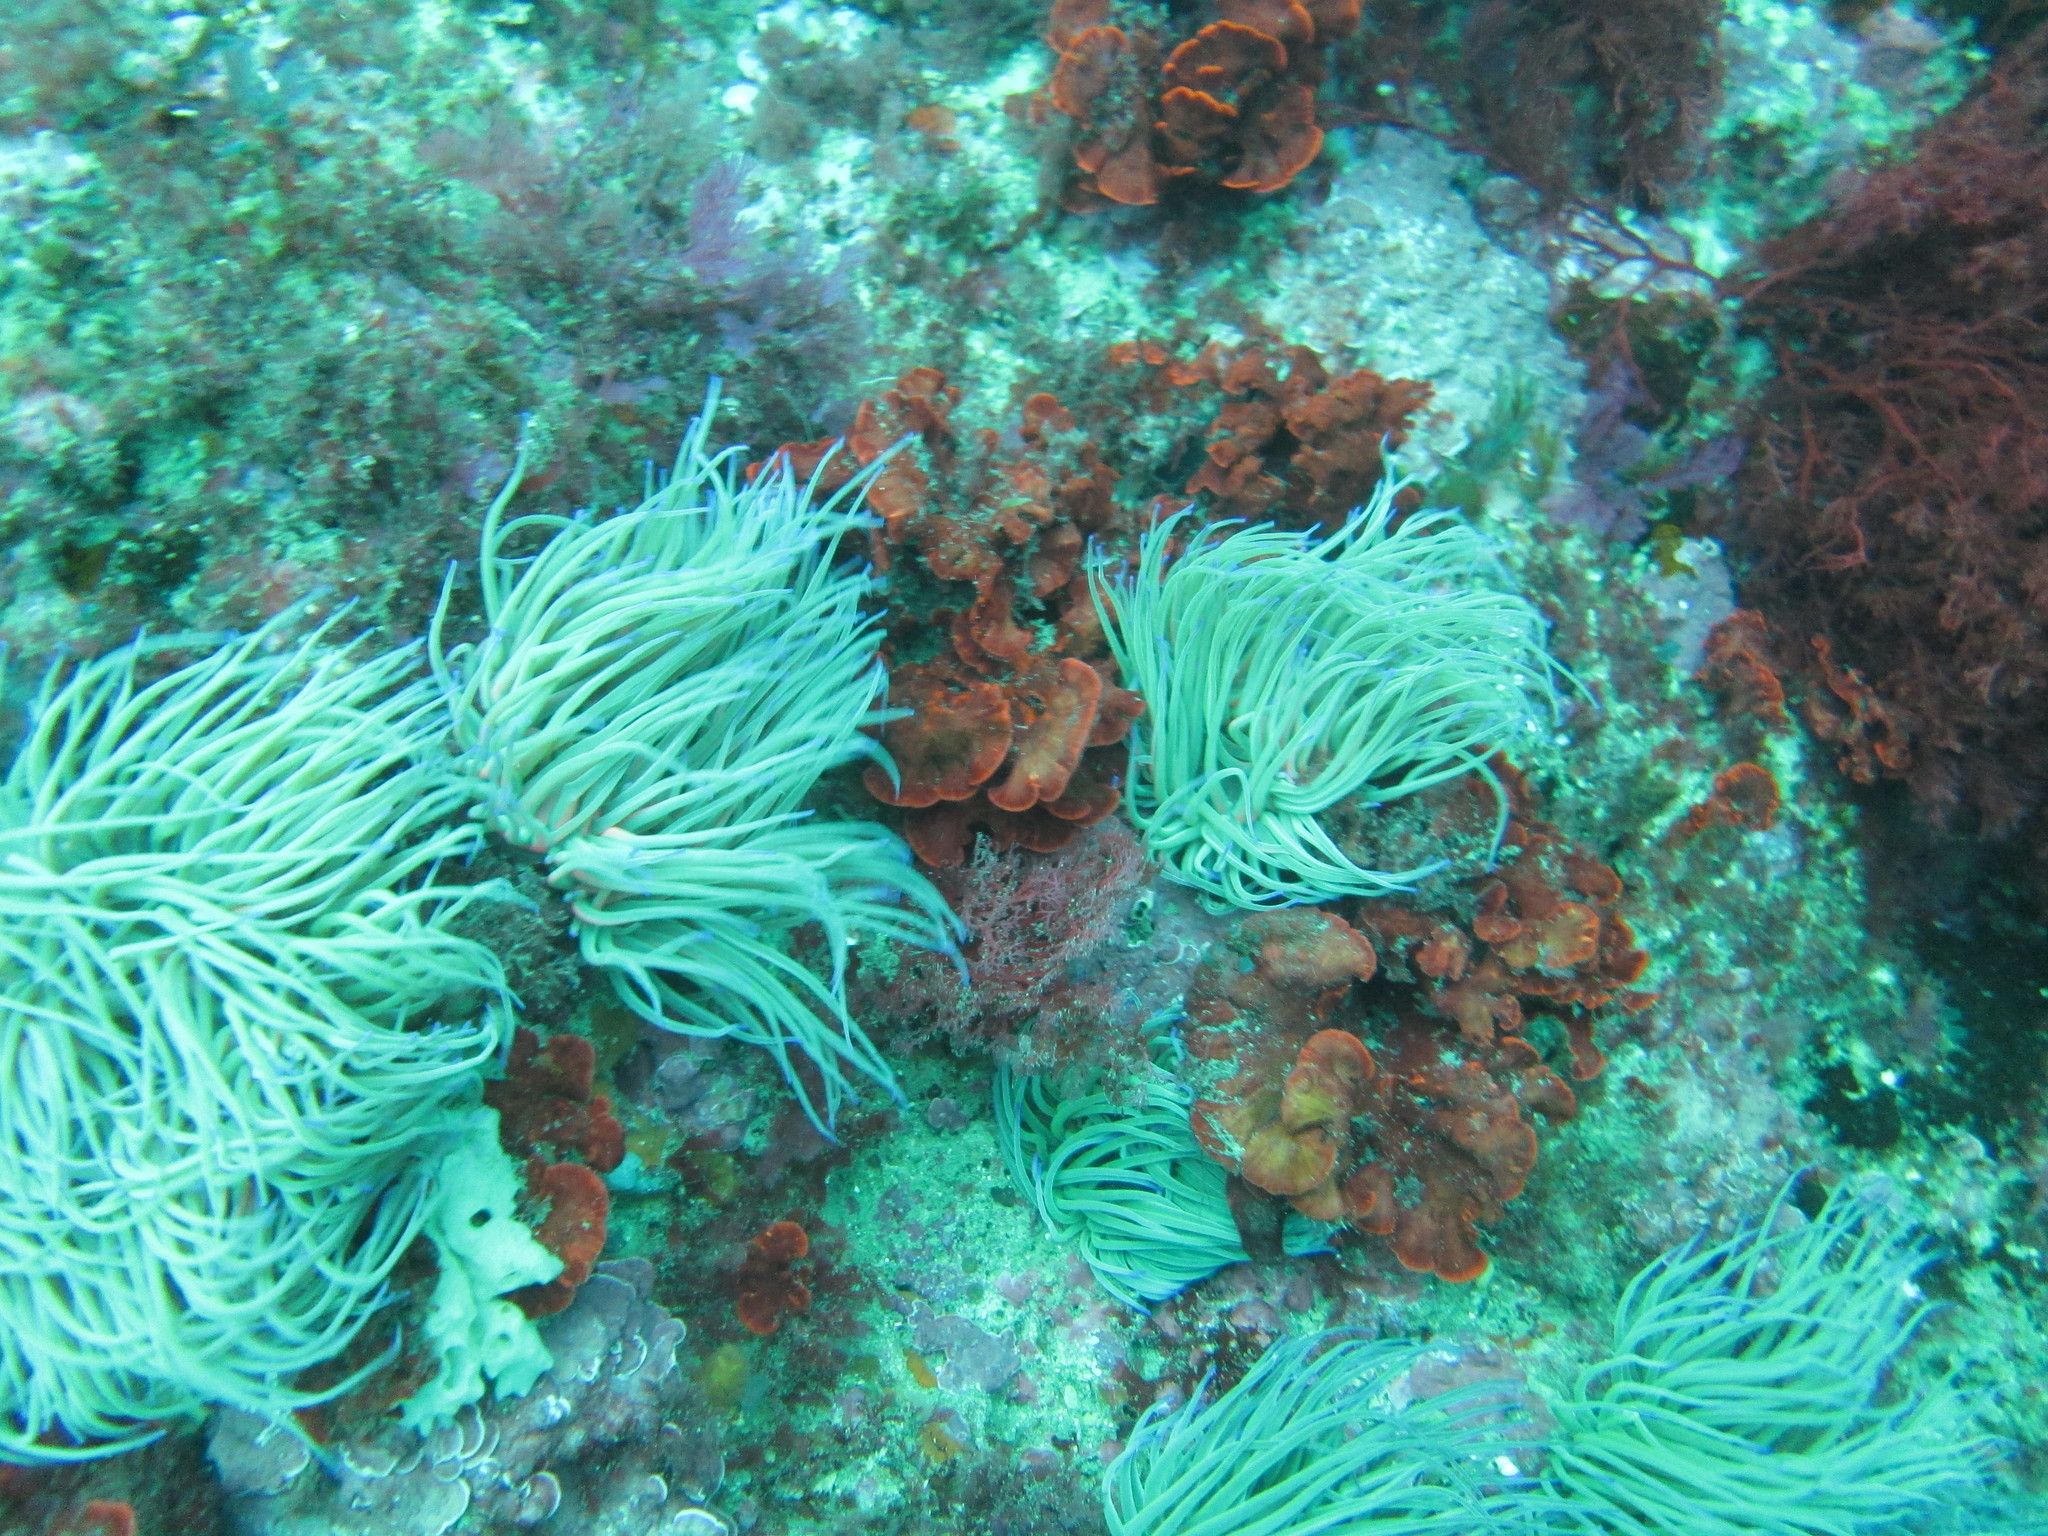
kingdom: Animalia
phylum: Cnidaria
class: Anthozoa
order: Actiniaria
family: Actiniidae
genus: Anemonia
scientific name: Anemonia viridis
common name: Snakelocks anemone
